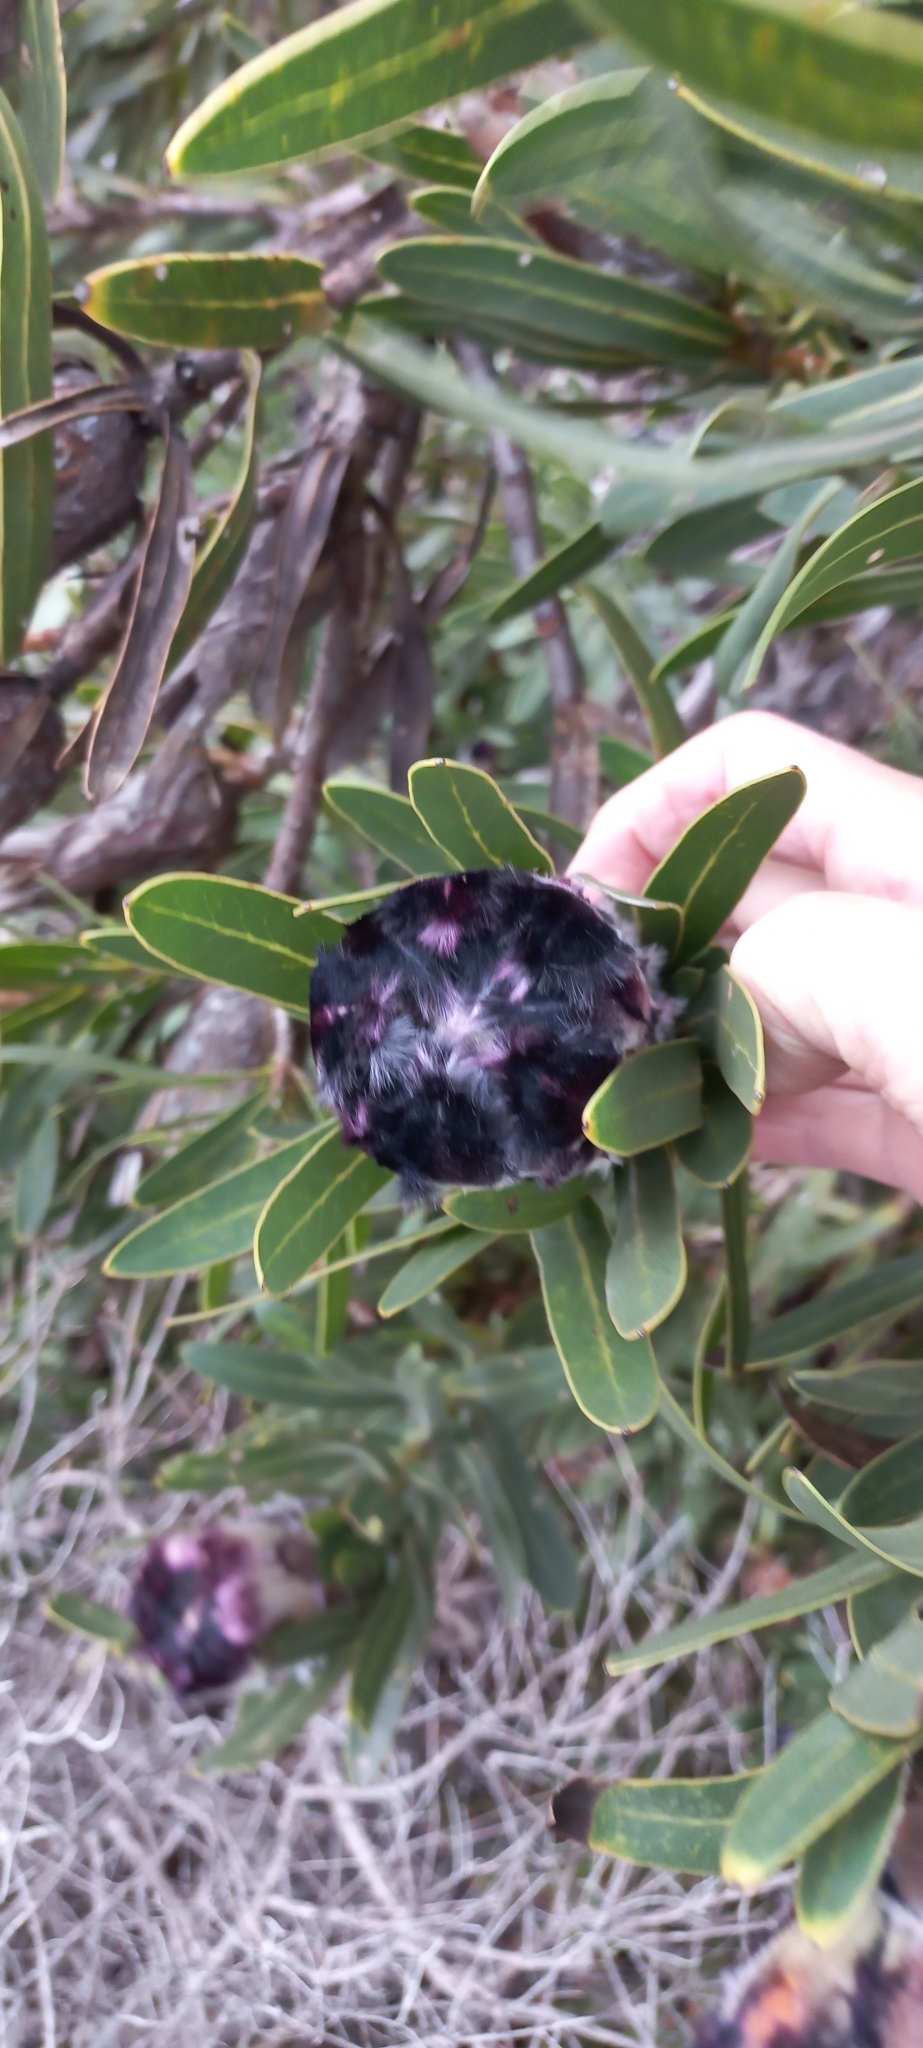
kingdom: Plantae
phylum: Tracheophyta
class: Magnoliopsida
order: Proteales
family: Proteaceae
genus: Protea
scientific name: Protea lepidocarpodendron
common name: Black-bearded protea
